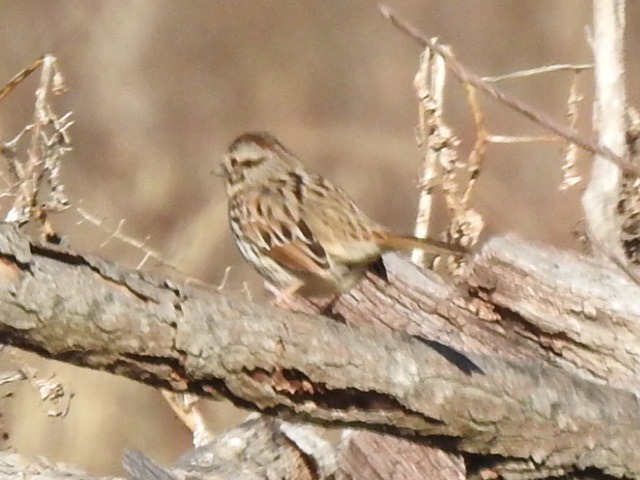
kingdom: Animalia
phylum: Chordata
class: Aves
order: Passeriformes
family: Passerellidae
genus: Melospiza
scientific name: Melospiza melodia
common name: Song sparrow
